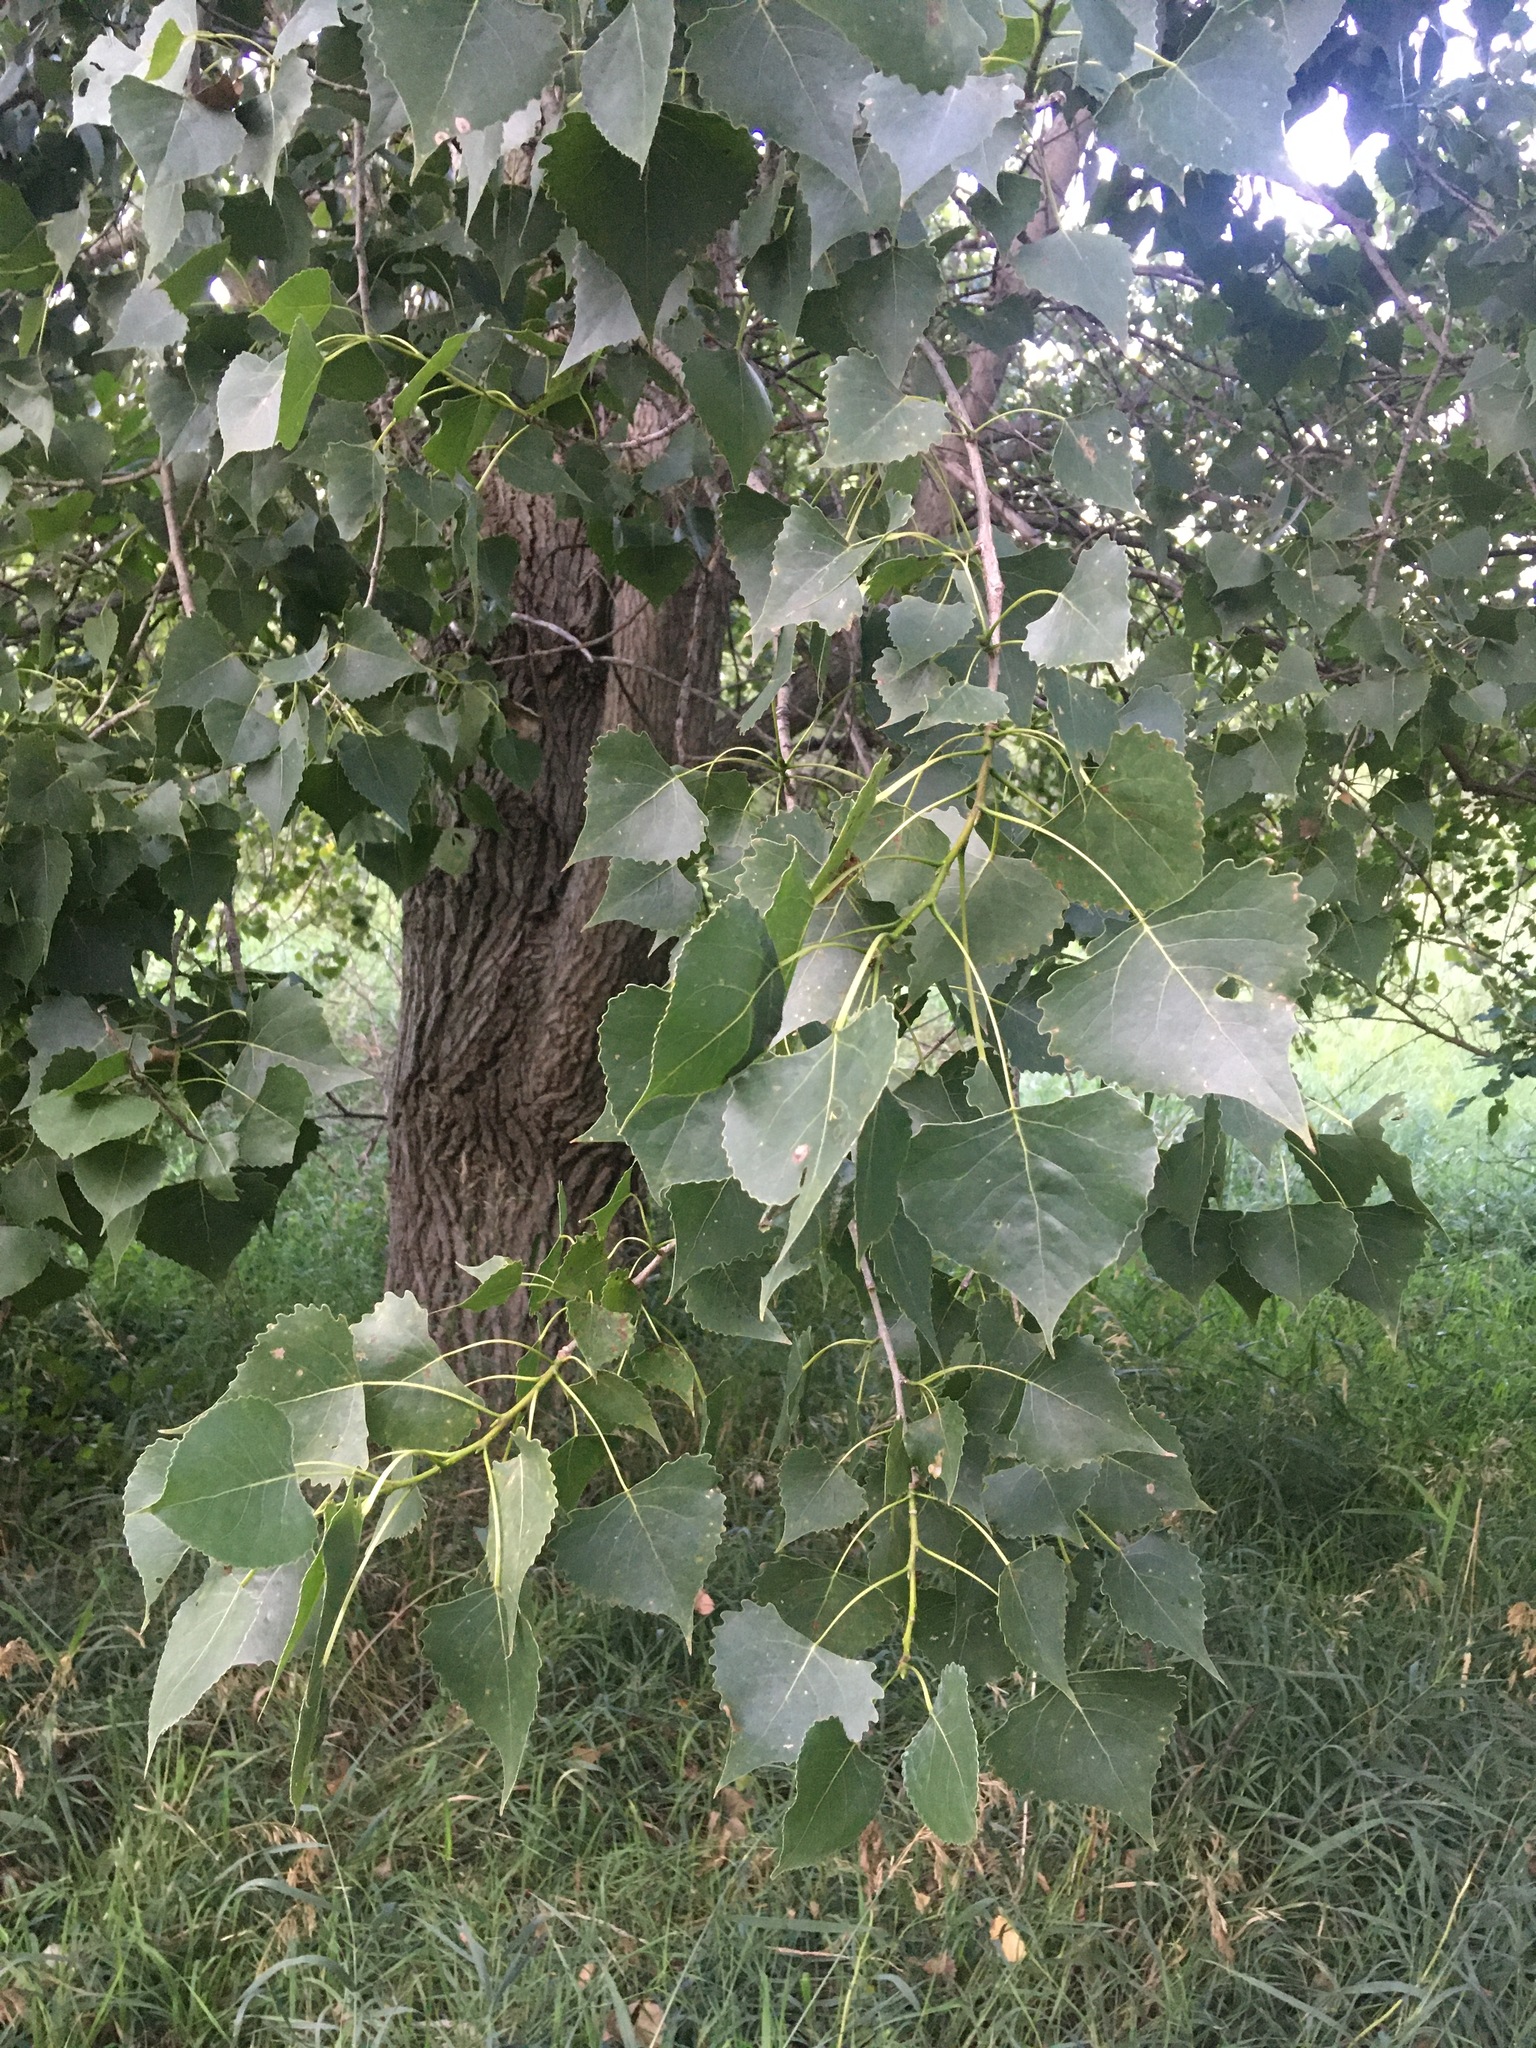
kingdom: Plantae
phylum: Tracheophyta
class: Magnoliopsida
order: Malpighiales
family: Salicaceae
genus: Populus
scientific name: Populus deltoides
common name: Eastern cottonwood
